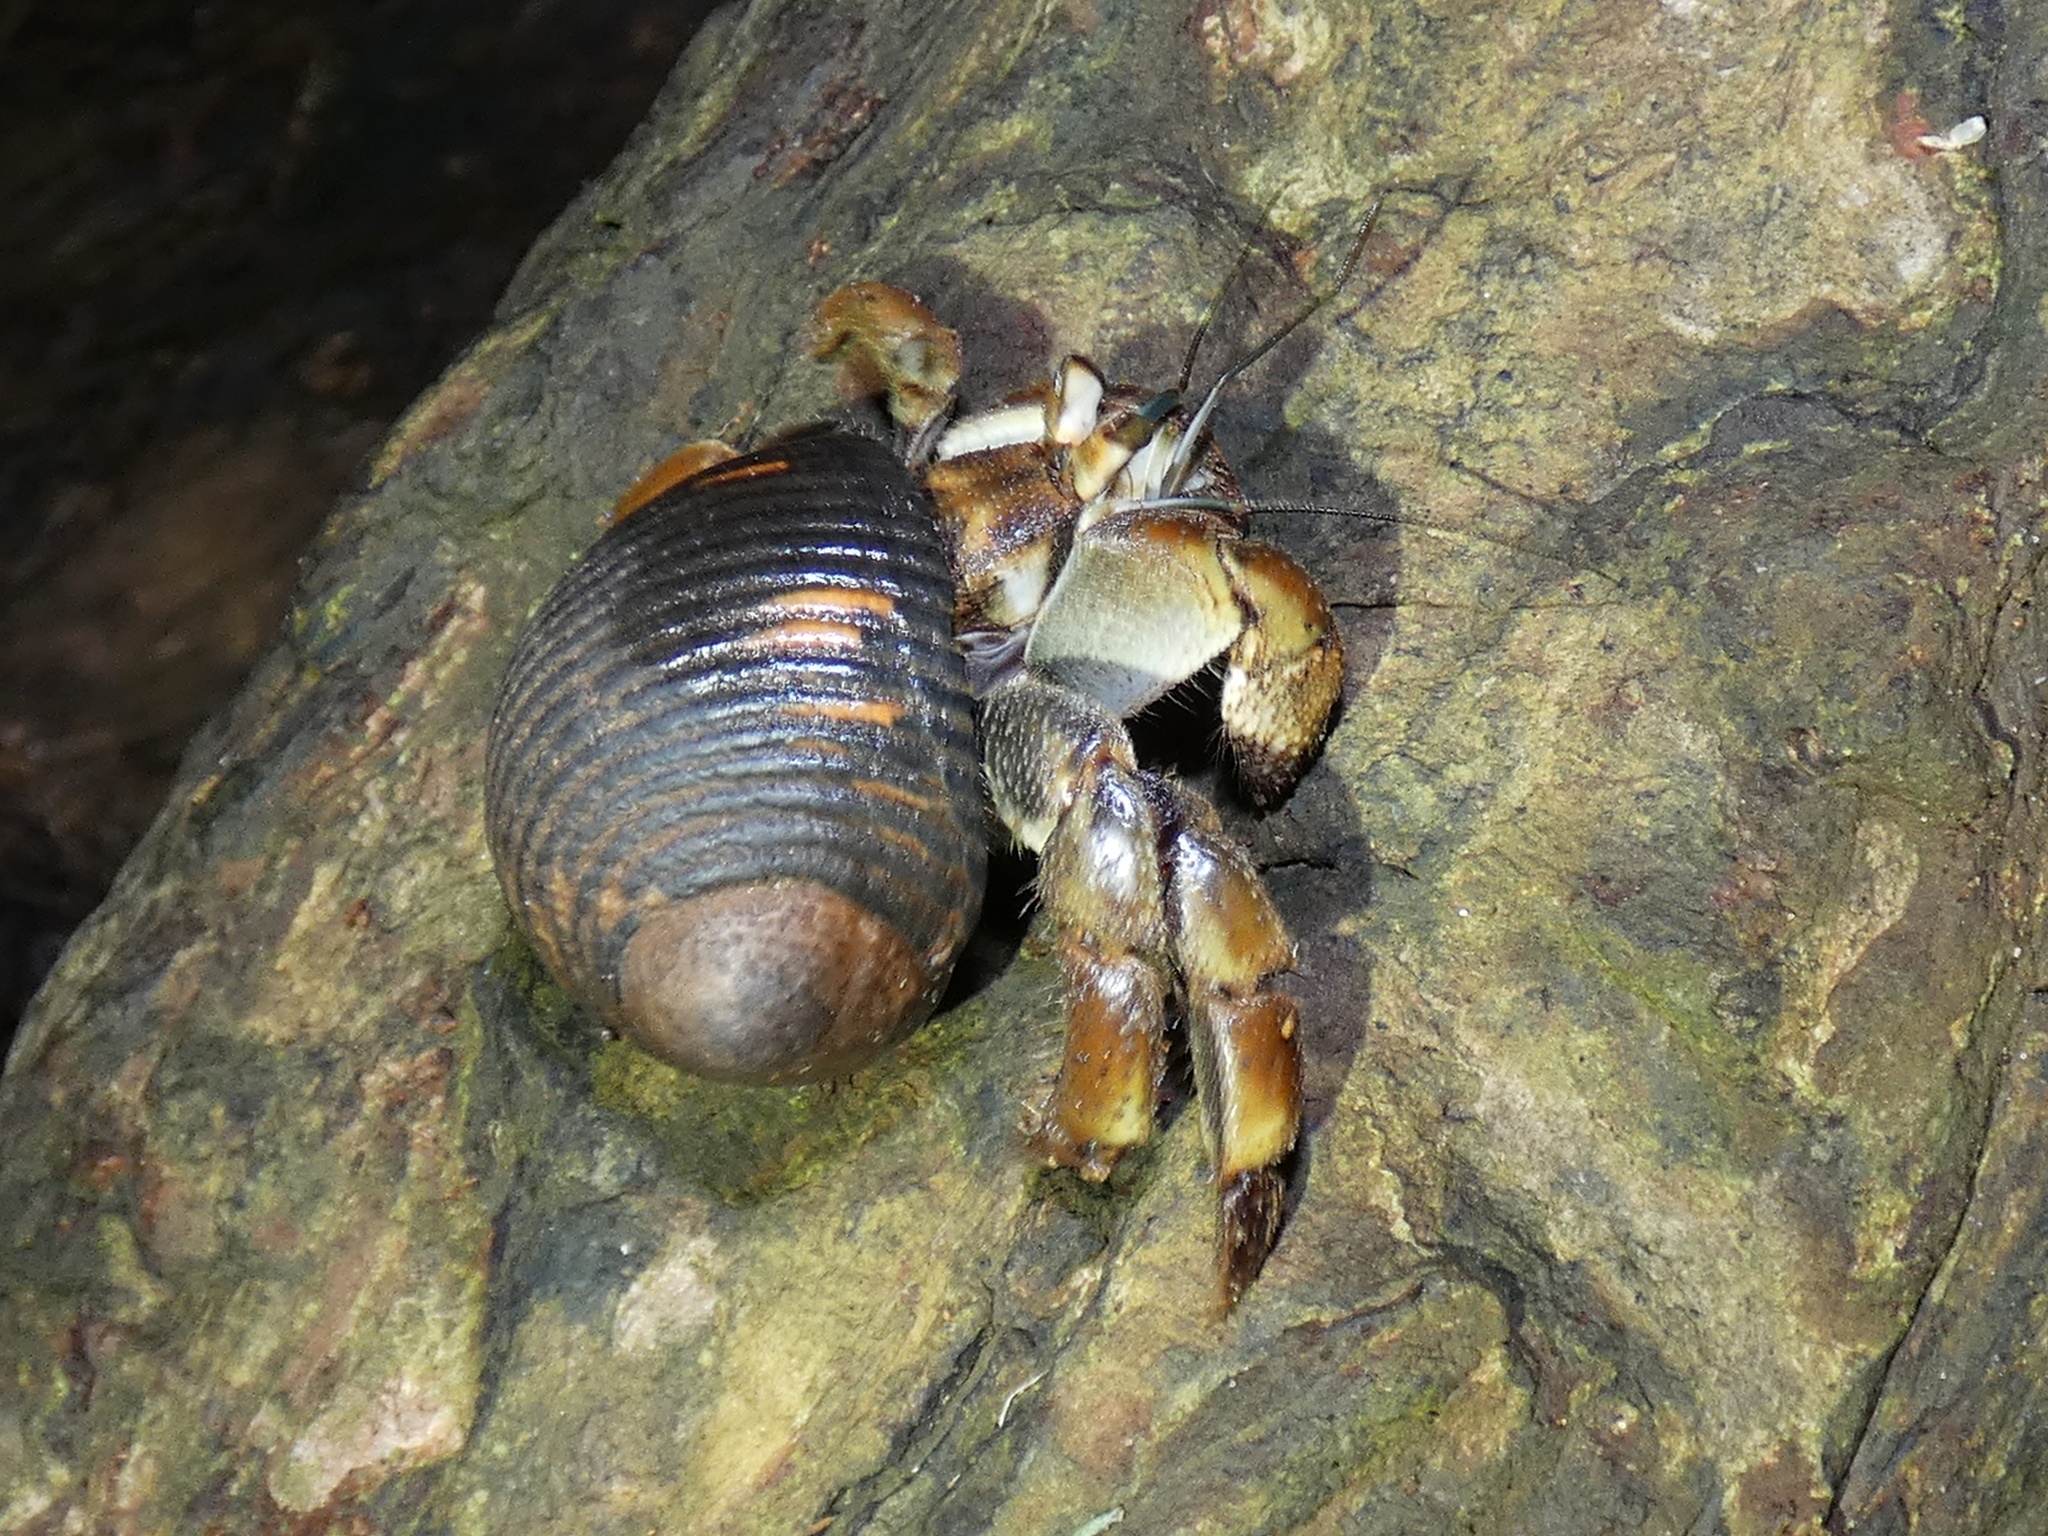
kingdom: Animalia
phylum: Arthropoda
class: Malacostraca
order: Decapoda
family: Coenobitidae
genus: Coenobita
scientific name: Coenobita compressus
